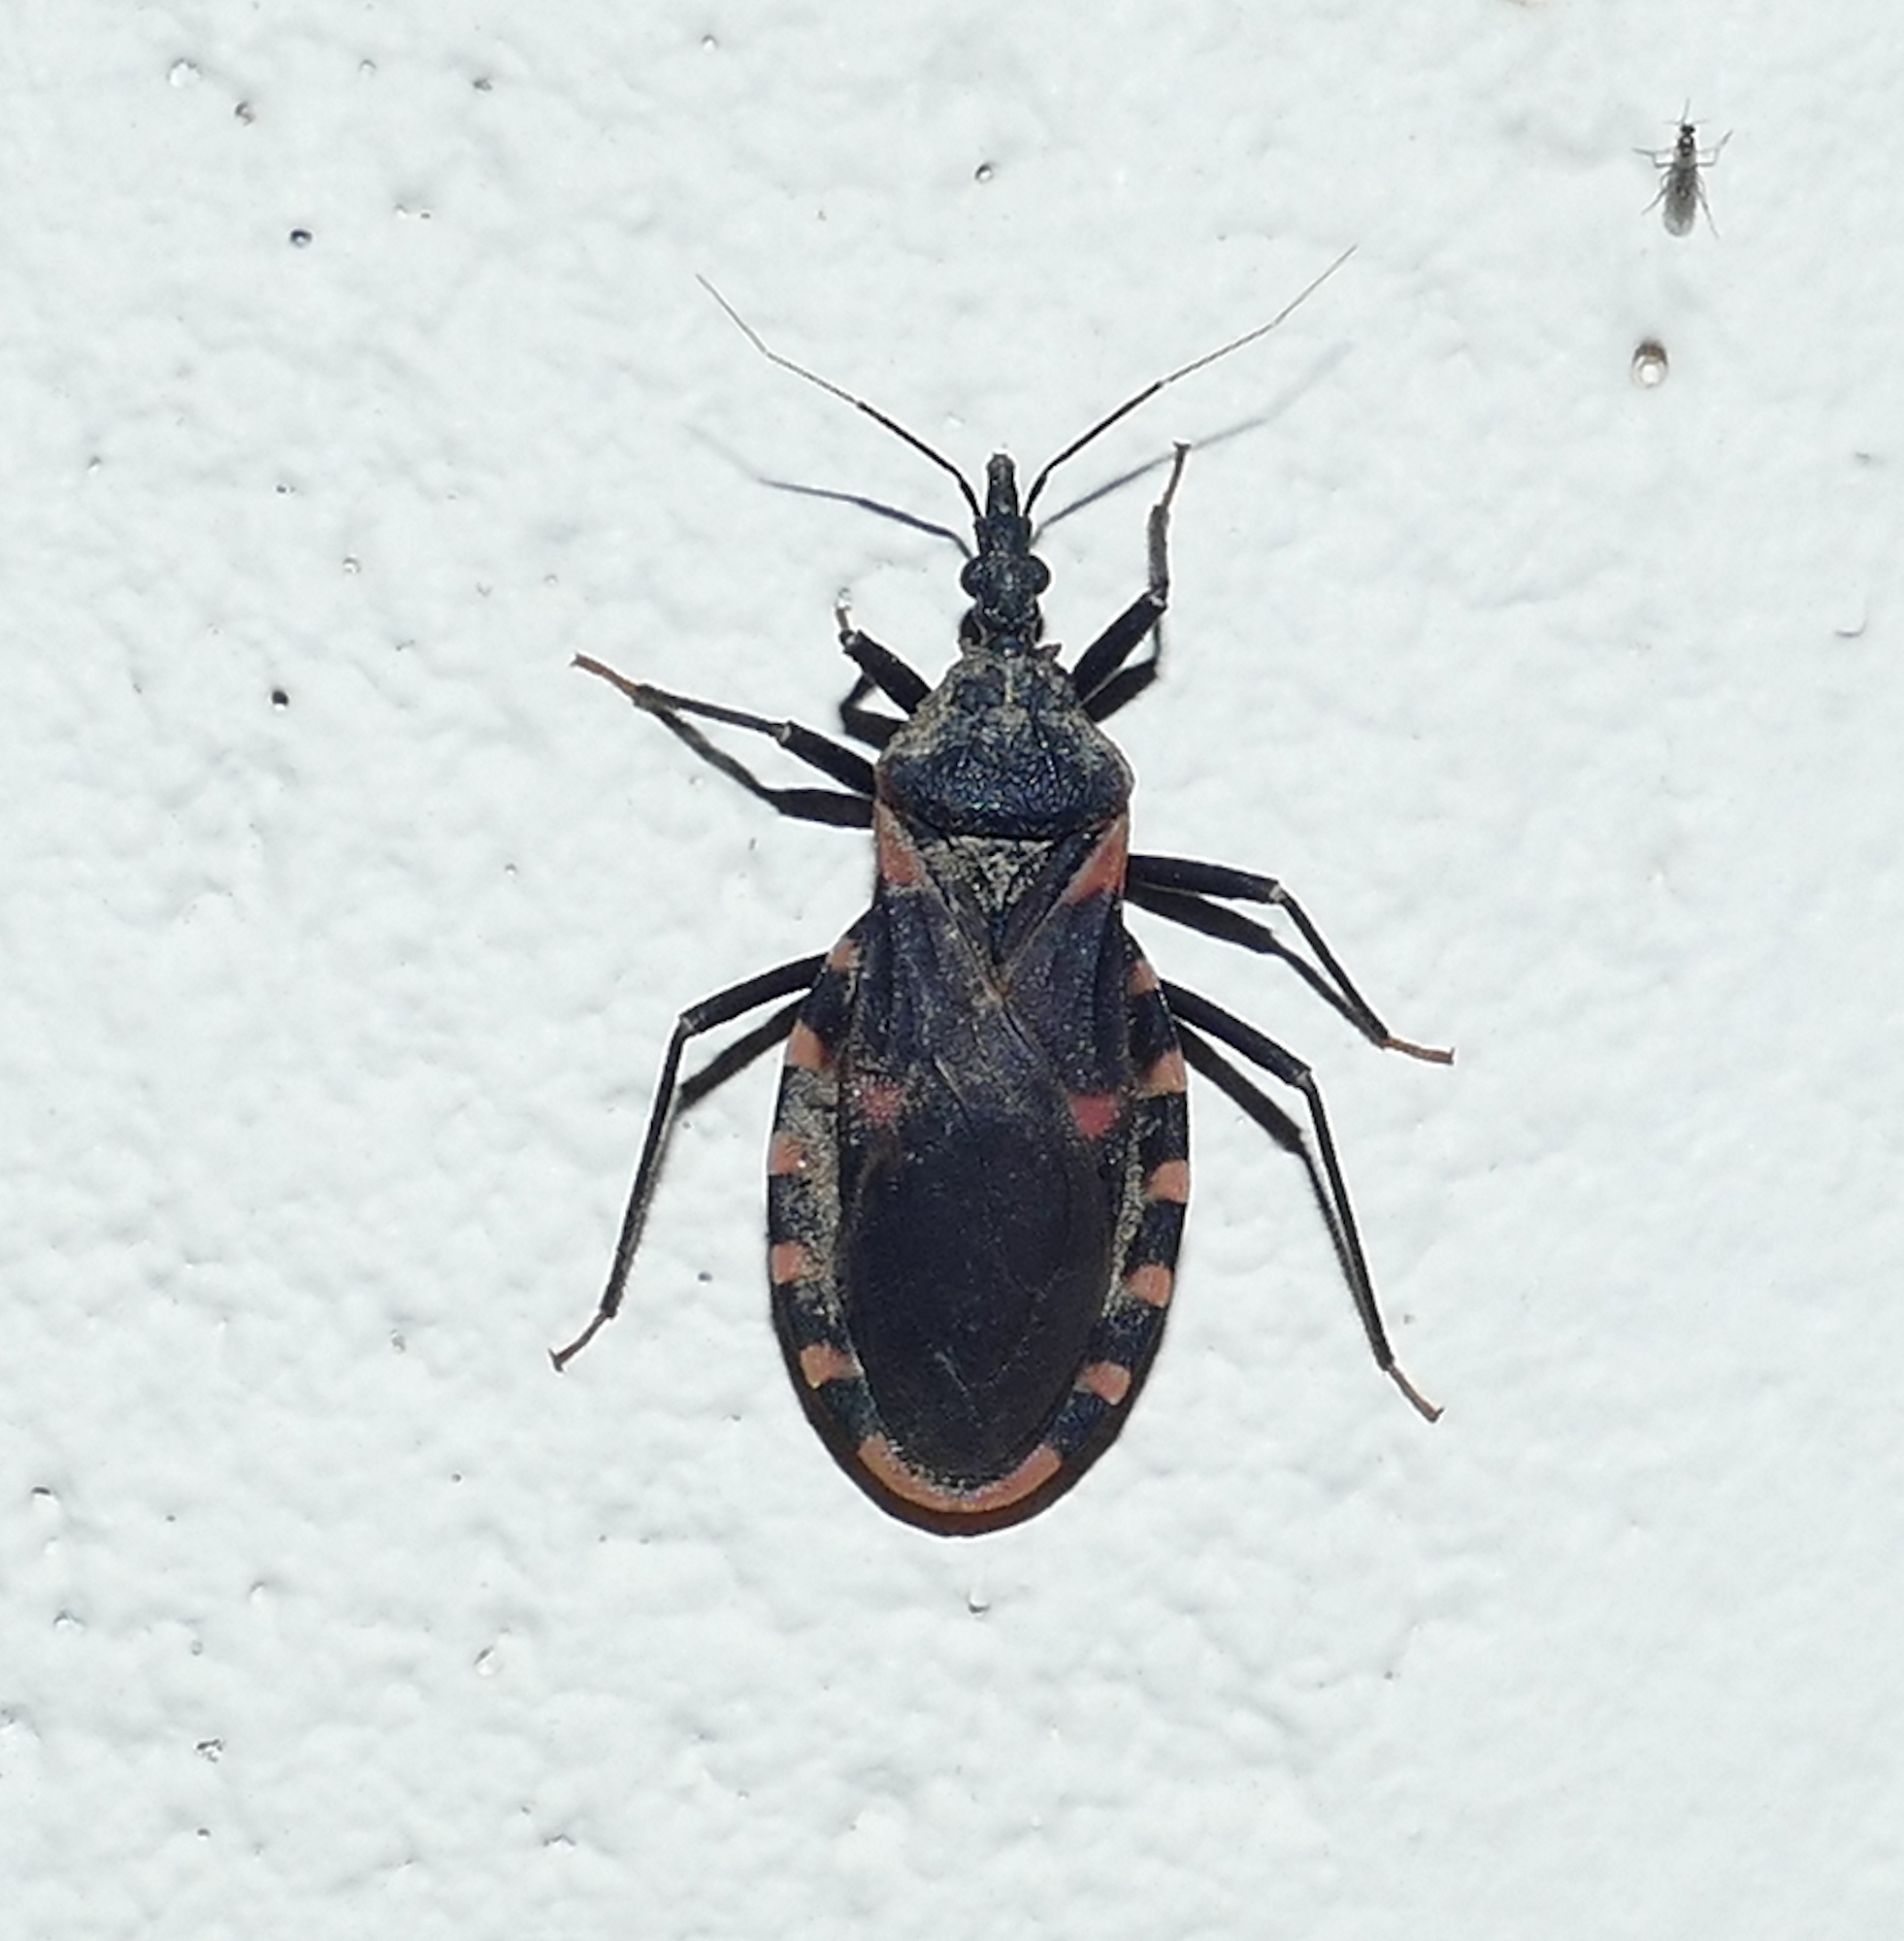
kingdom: Animalia
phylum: Arthropoda
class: Insecta
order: Hemiptera
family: Reduviidae
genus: Triatoma
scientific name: Triatoma sanguisuga
